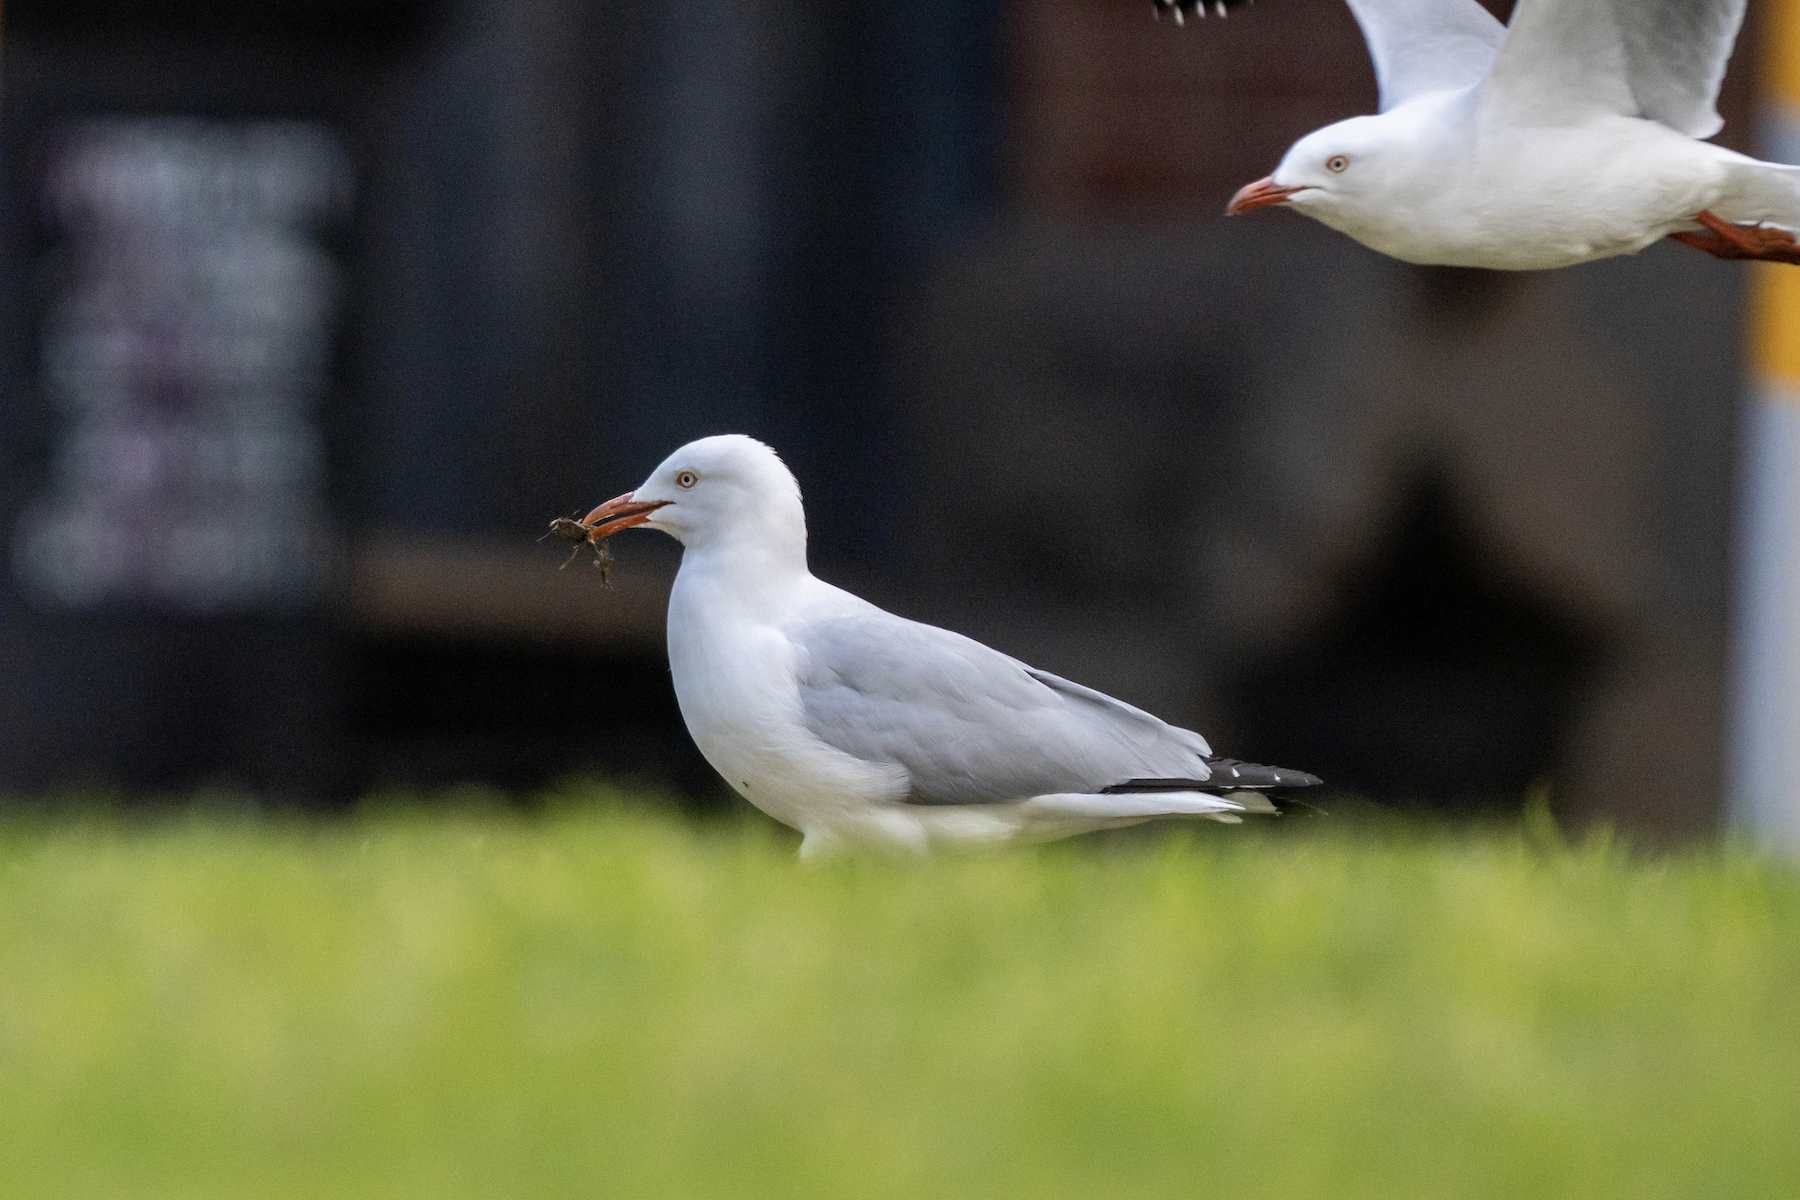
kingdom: Animalia
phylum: Chordata
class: Aves
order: Charadriiformes
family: Laridae
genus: Chroicocephalus
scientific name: Chroicocephalus novaehollandiae
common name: Silver gull
